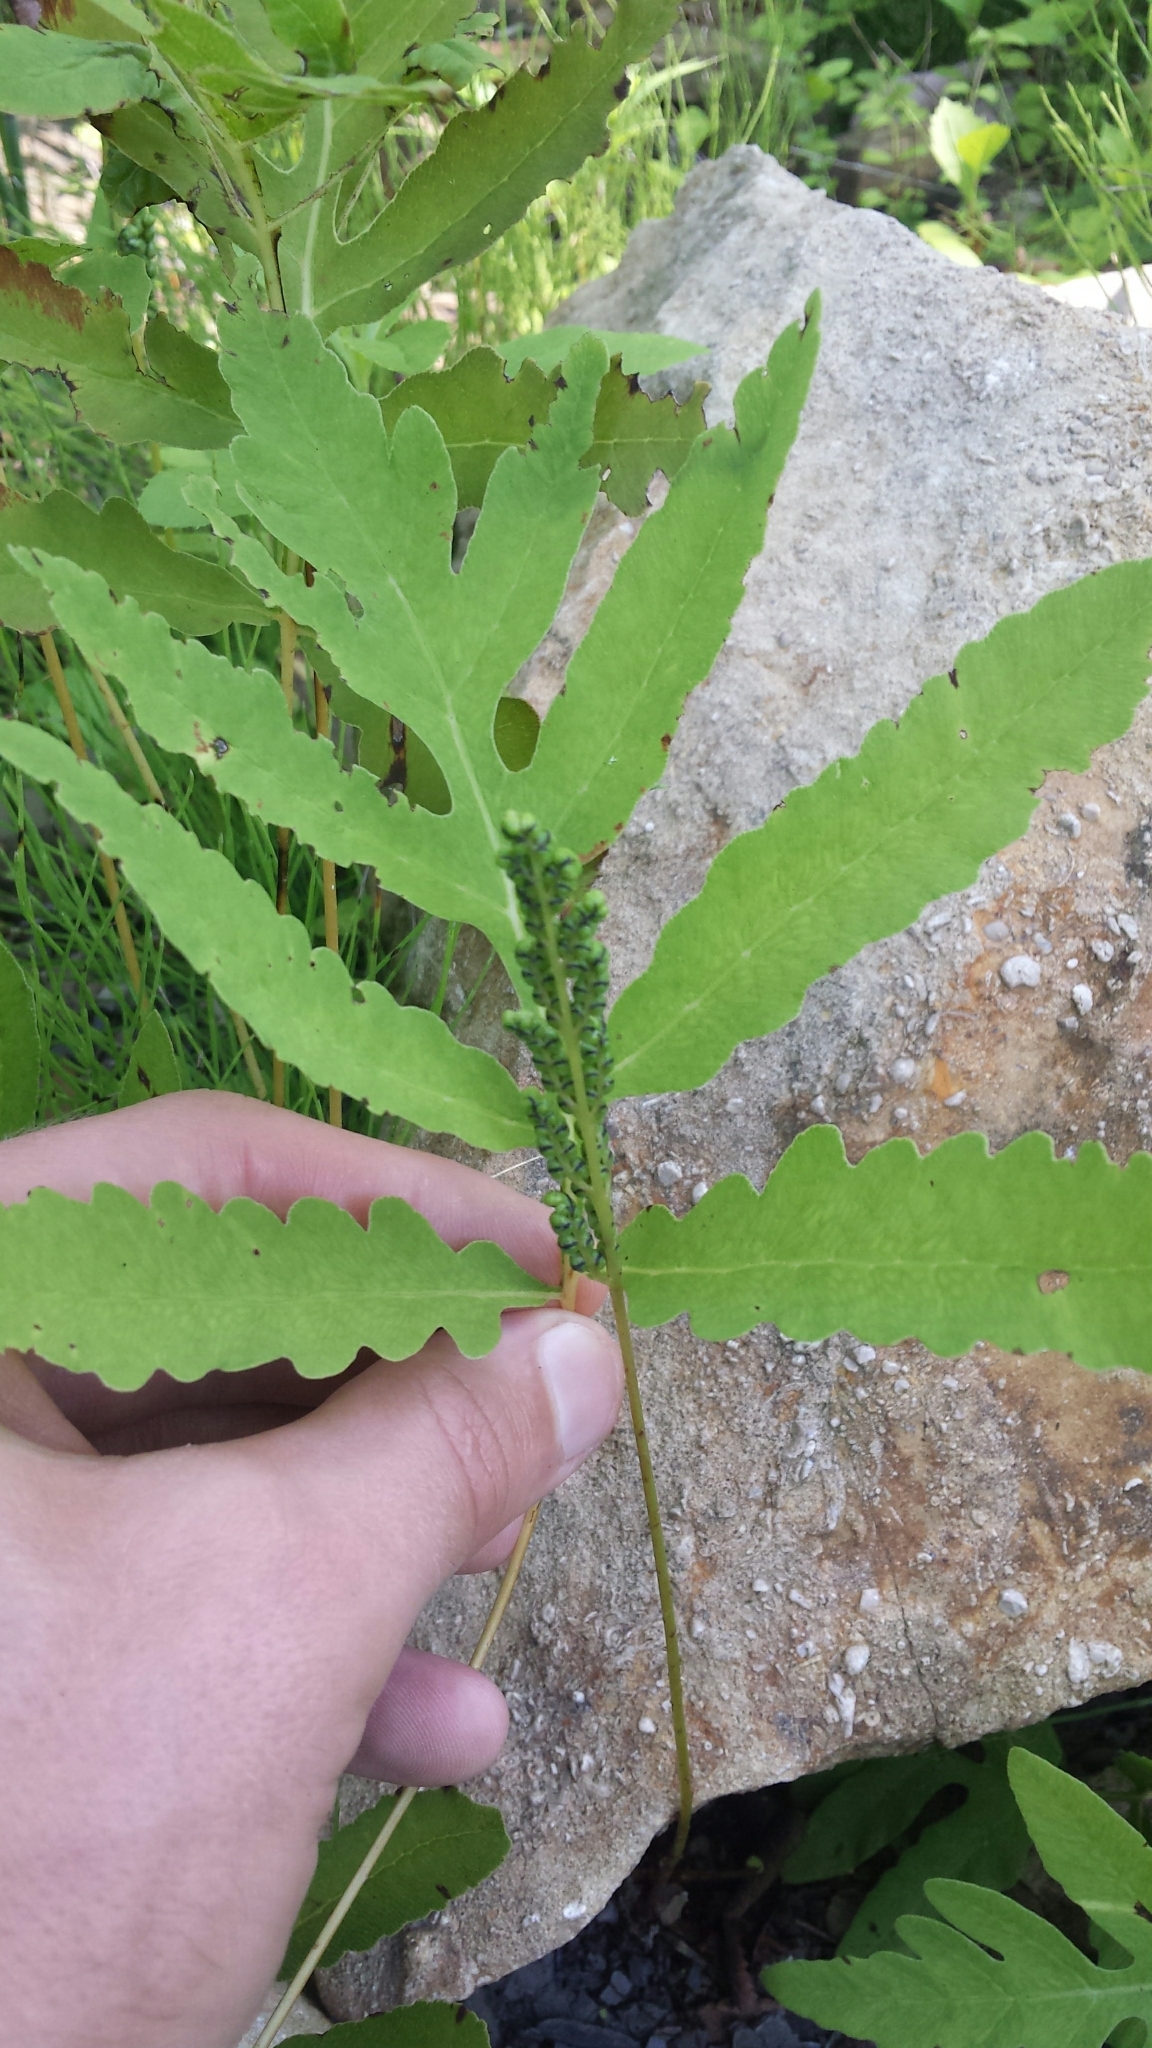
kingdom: Plantae
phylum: Tracheophyta
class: Polypodiopsida
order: Polypodiales
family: Onocleaceae
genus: Onoclea
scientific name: Onoclea sensibilis
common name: Sensitive fern
